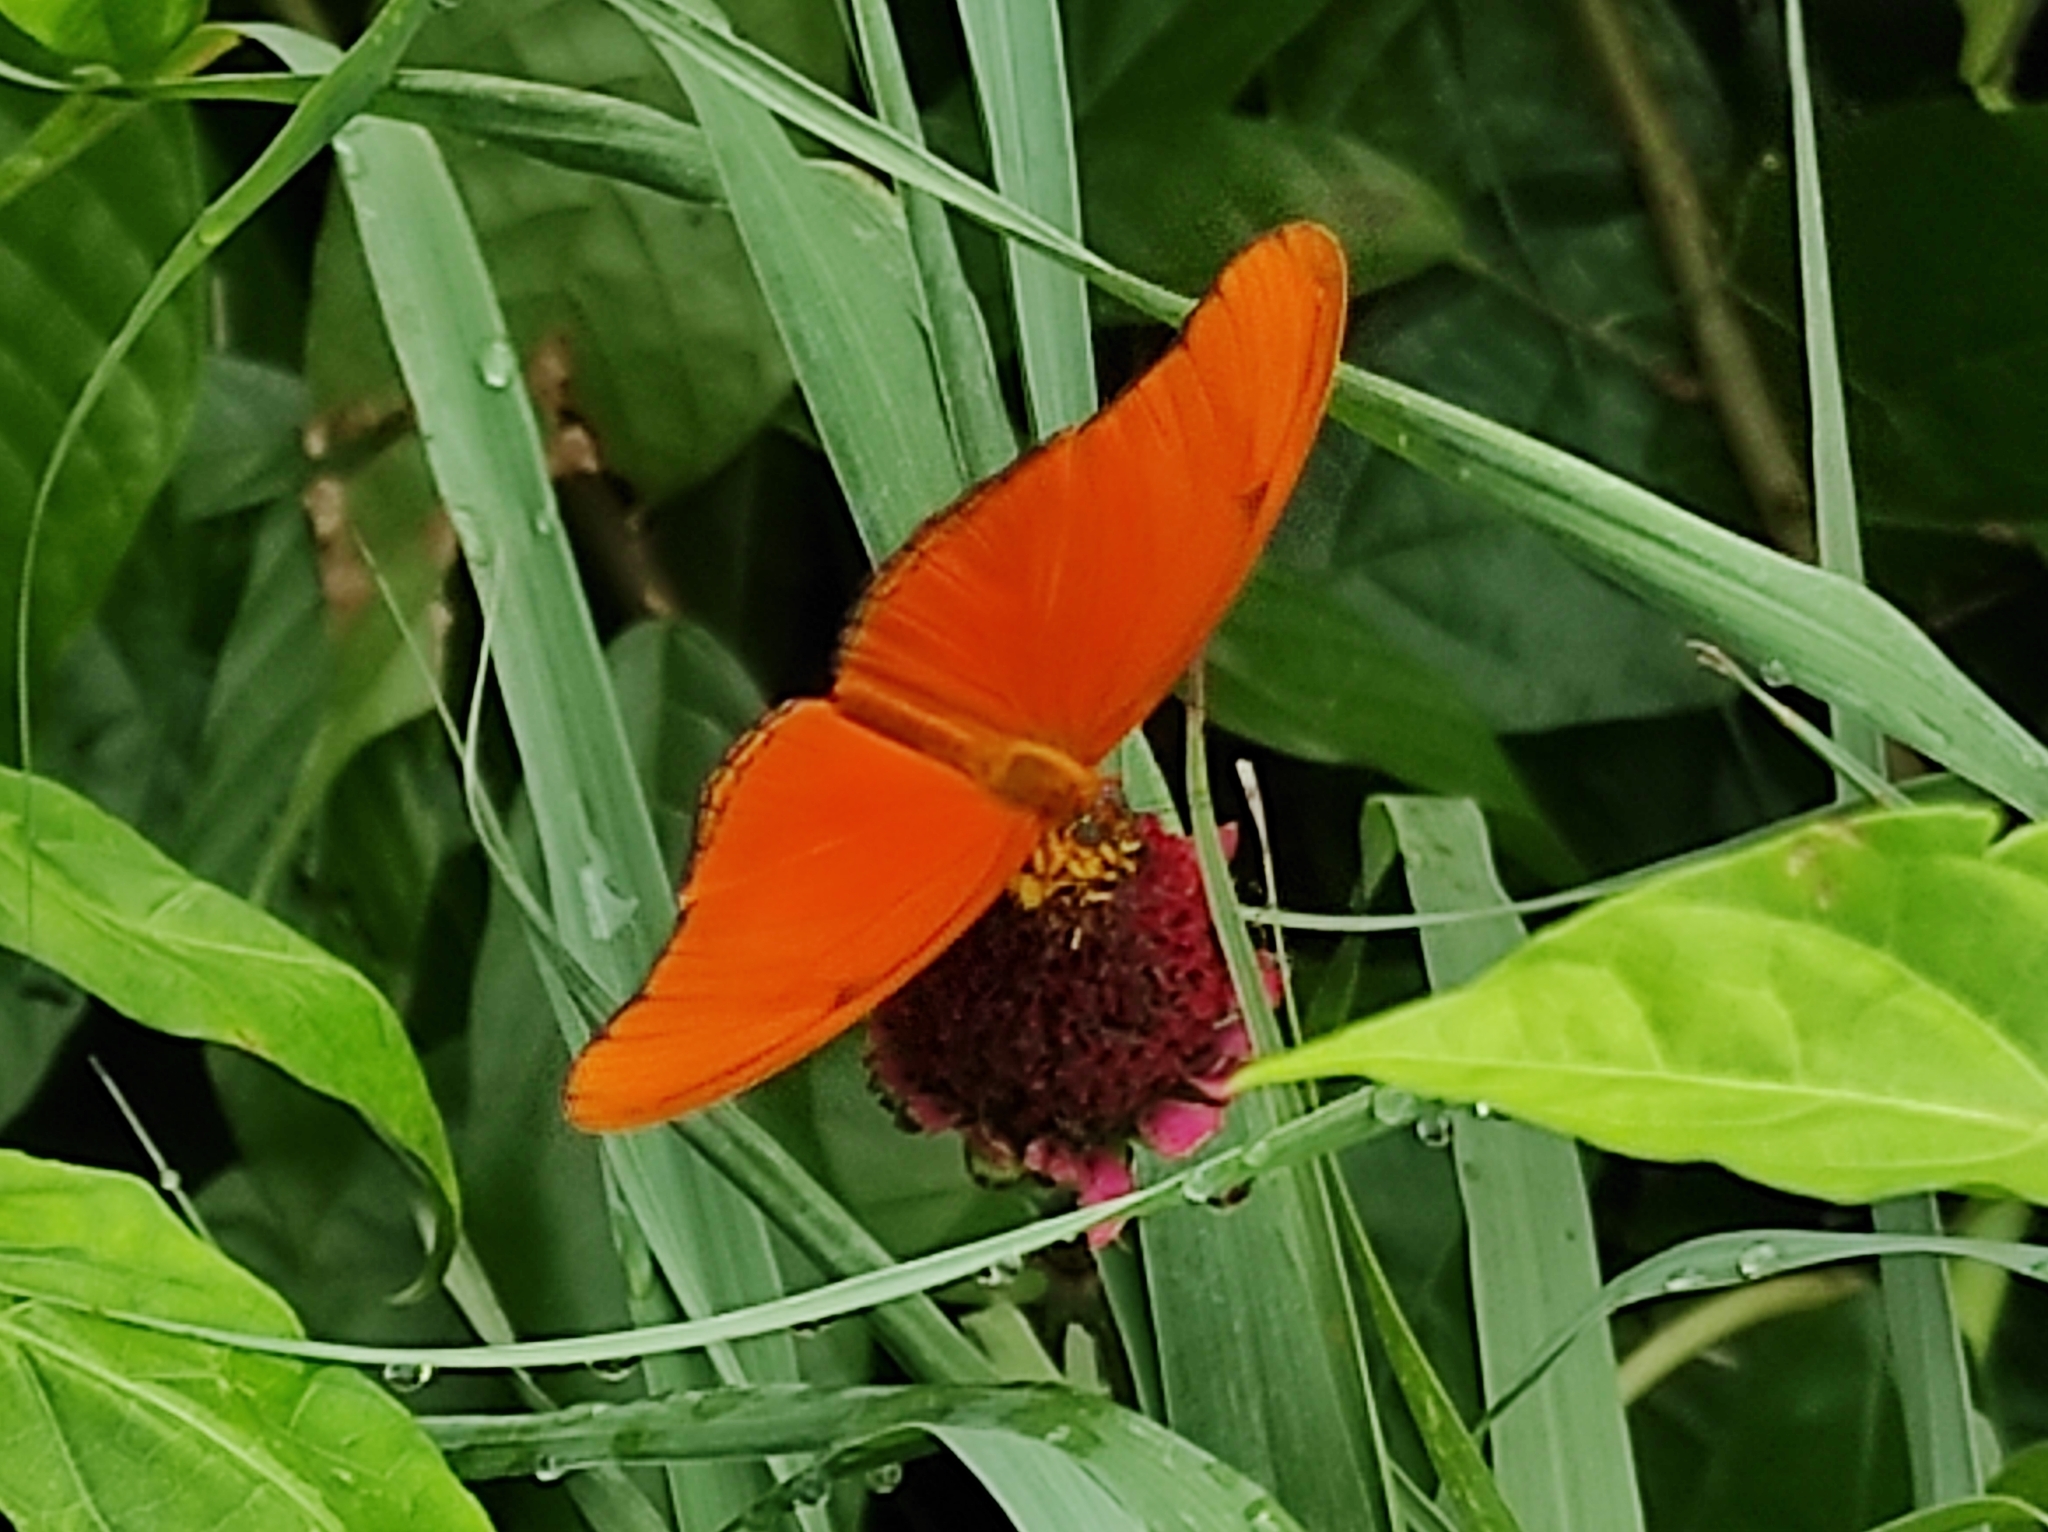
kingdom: Animalia
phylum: Arthropoda
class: Insecta
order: Lepidoptera
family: Nymphalidae
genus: Dryas
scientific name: Dryas iulia
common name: Flambeau
